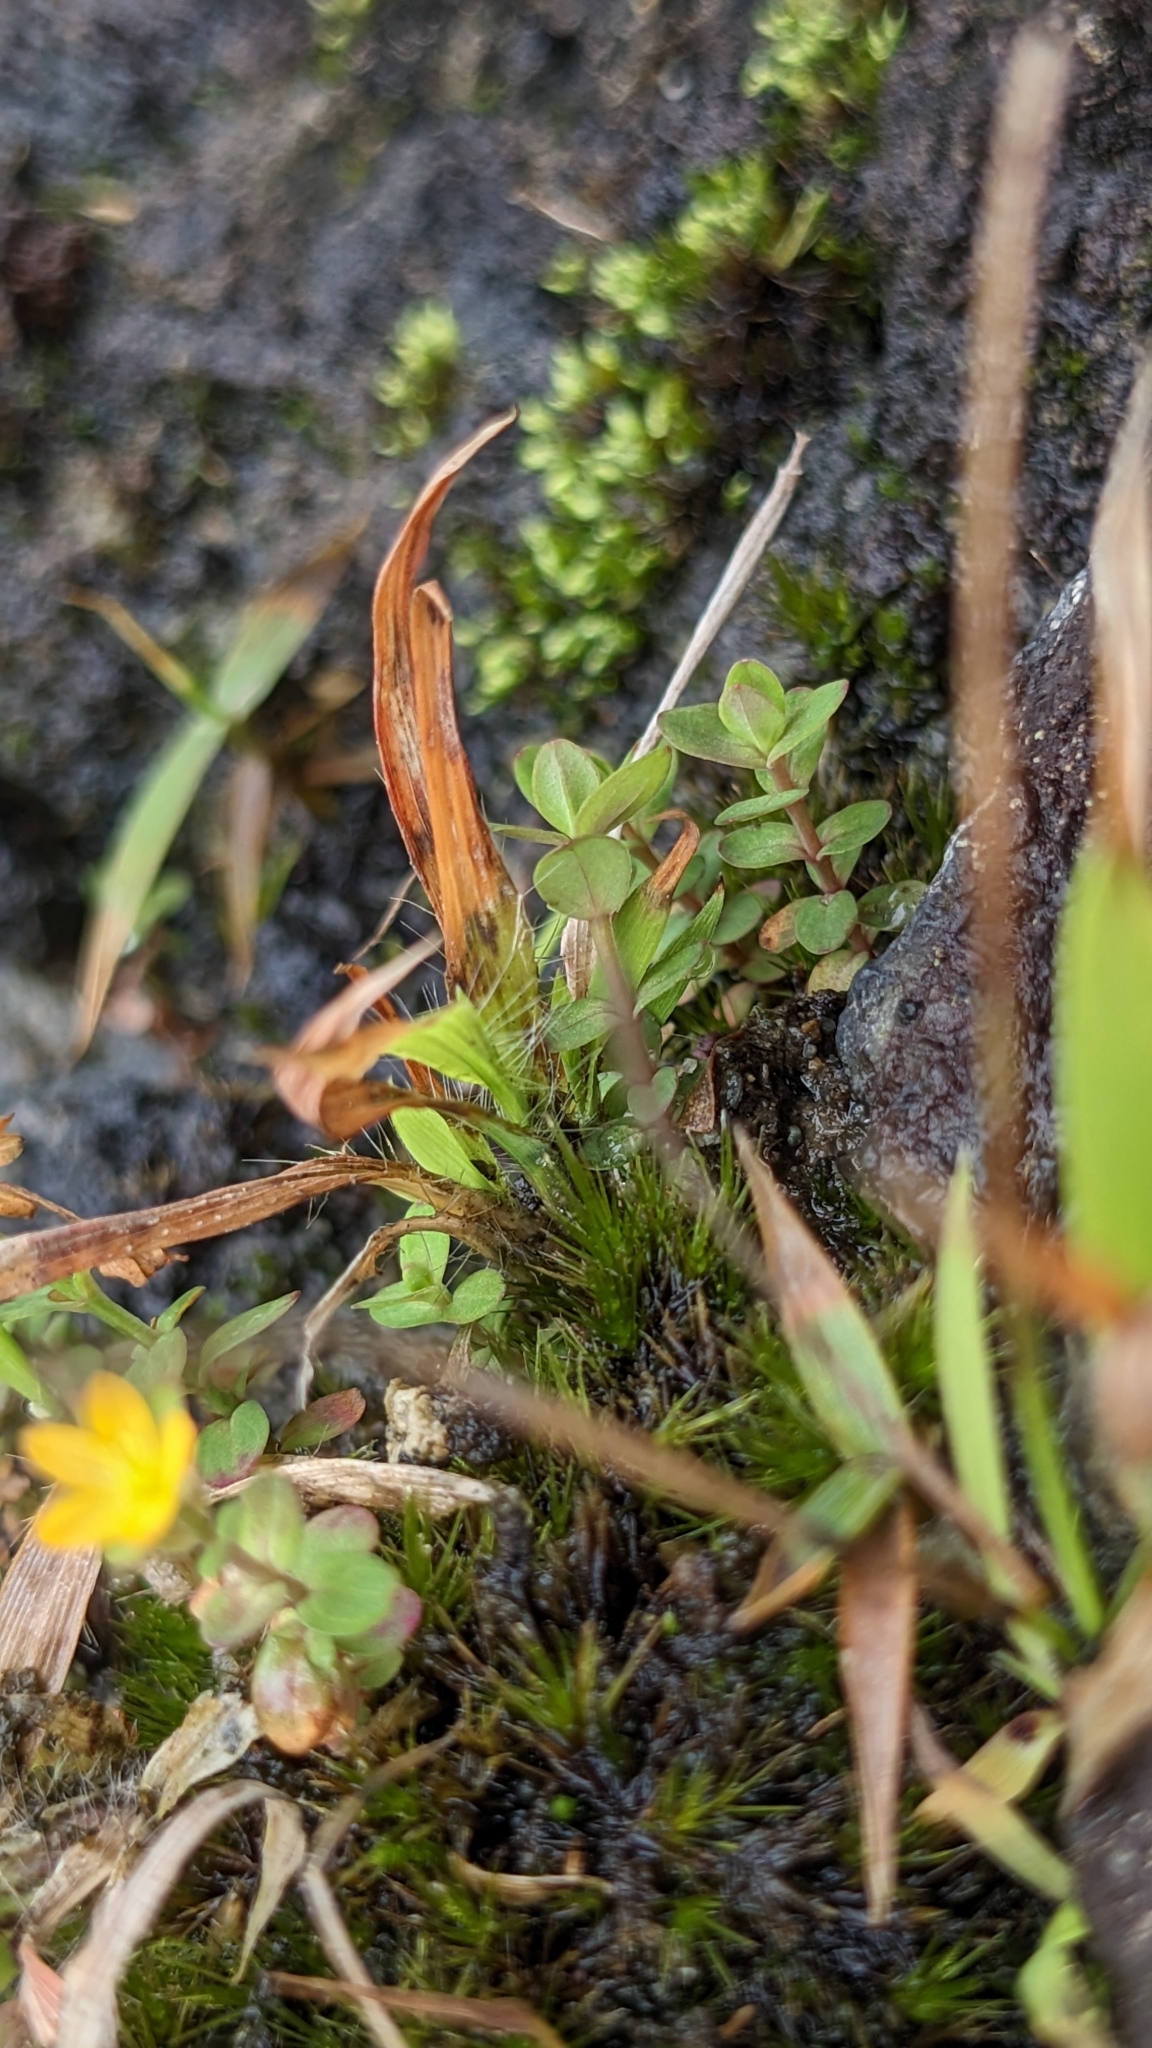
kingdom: Plantae
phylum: Tracheophyta
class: Magnoliopsida
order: Malpighiales
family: Hypericaceae
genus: Hypericum
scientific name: Hypericum japonicum
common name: Matted st. john's-wort
